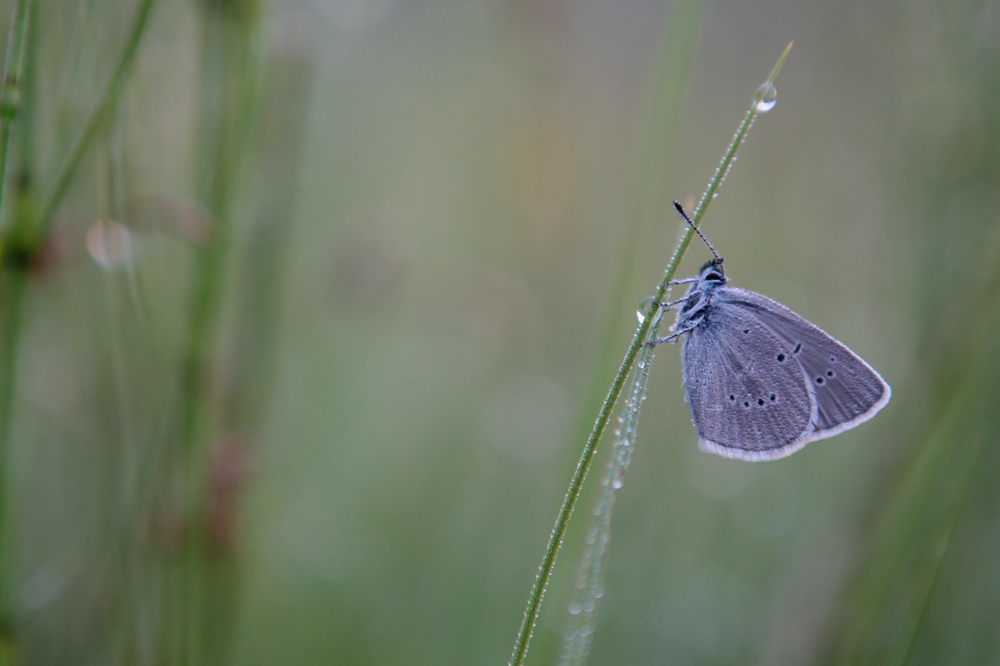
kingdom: Animalia
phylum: Arthropoda
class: Insecta
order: Lepidoptera
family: Lycaenidae
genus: Cyaniris
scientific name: Cyaniris semiargus
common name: Mazarine blue
